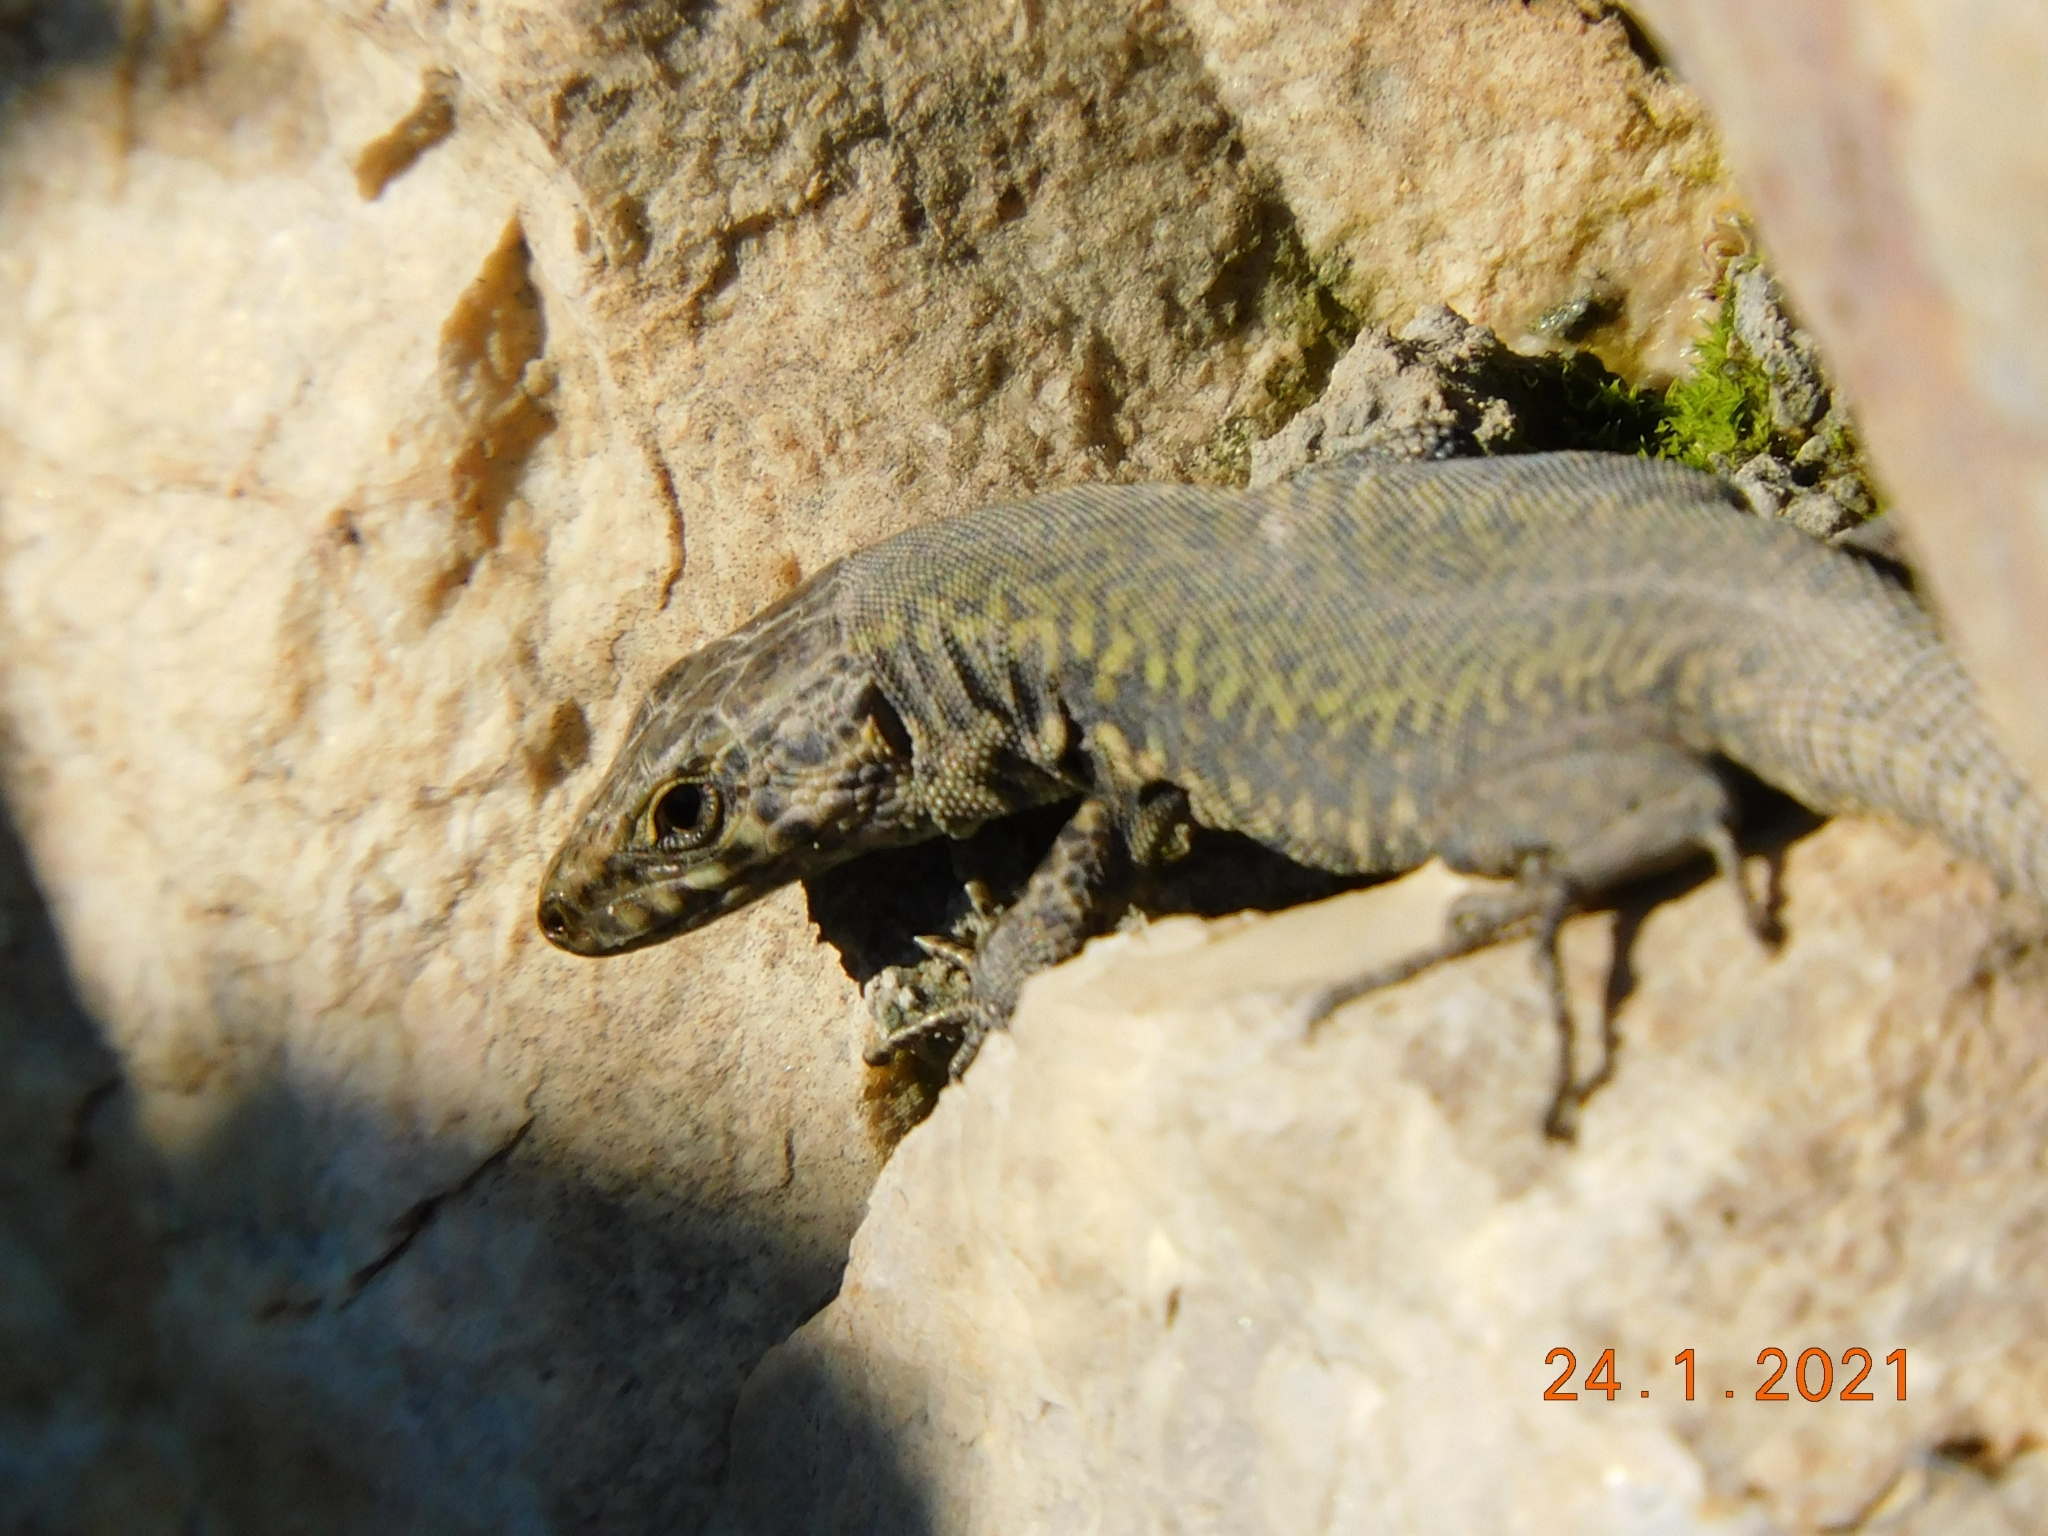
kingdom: Animalia
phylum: Chordata
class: Squamata
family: Lacertidae
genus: Podarcis
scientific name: Podarcis muralis
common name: Common wall lizard
